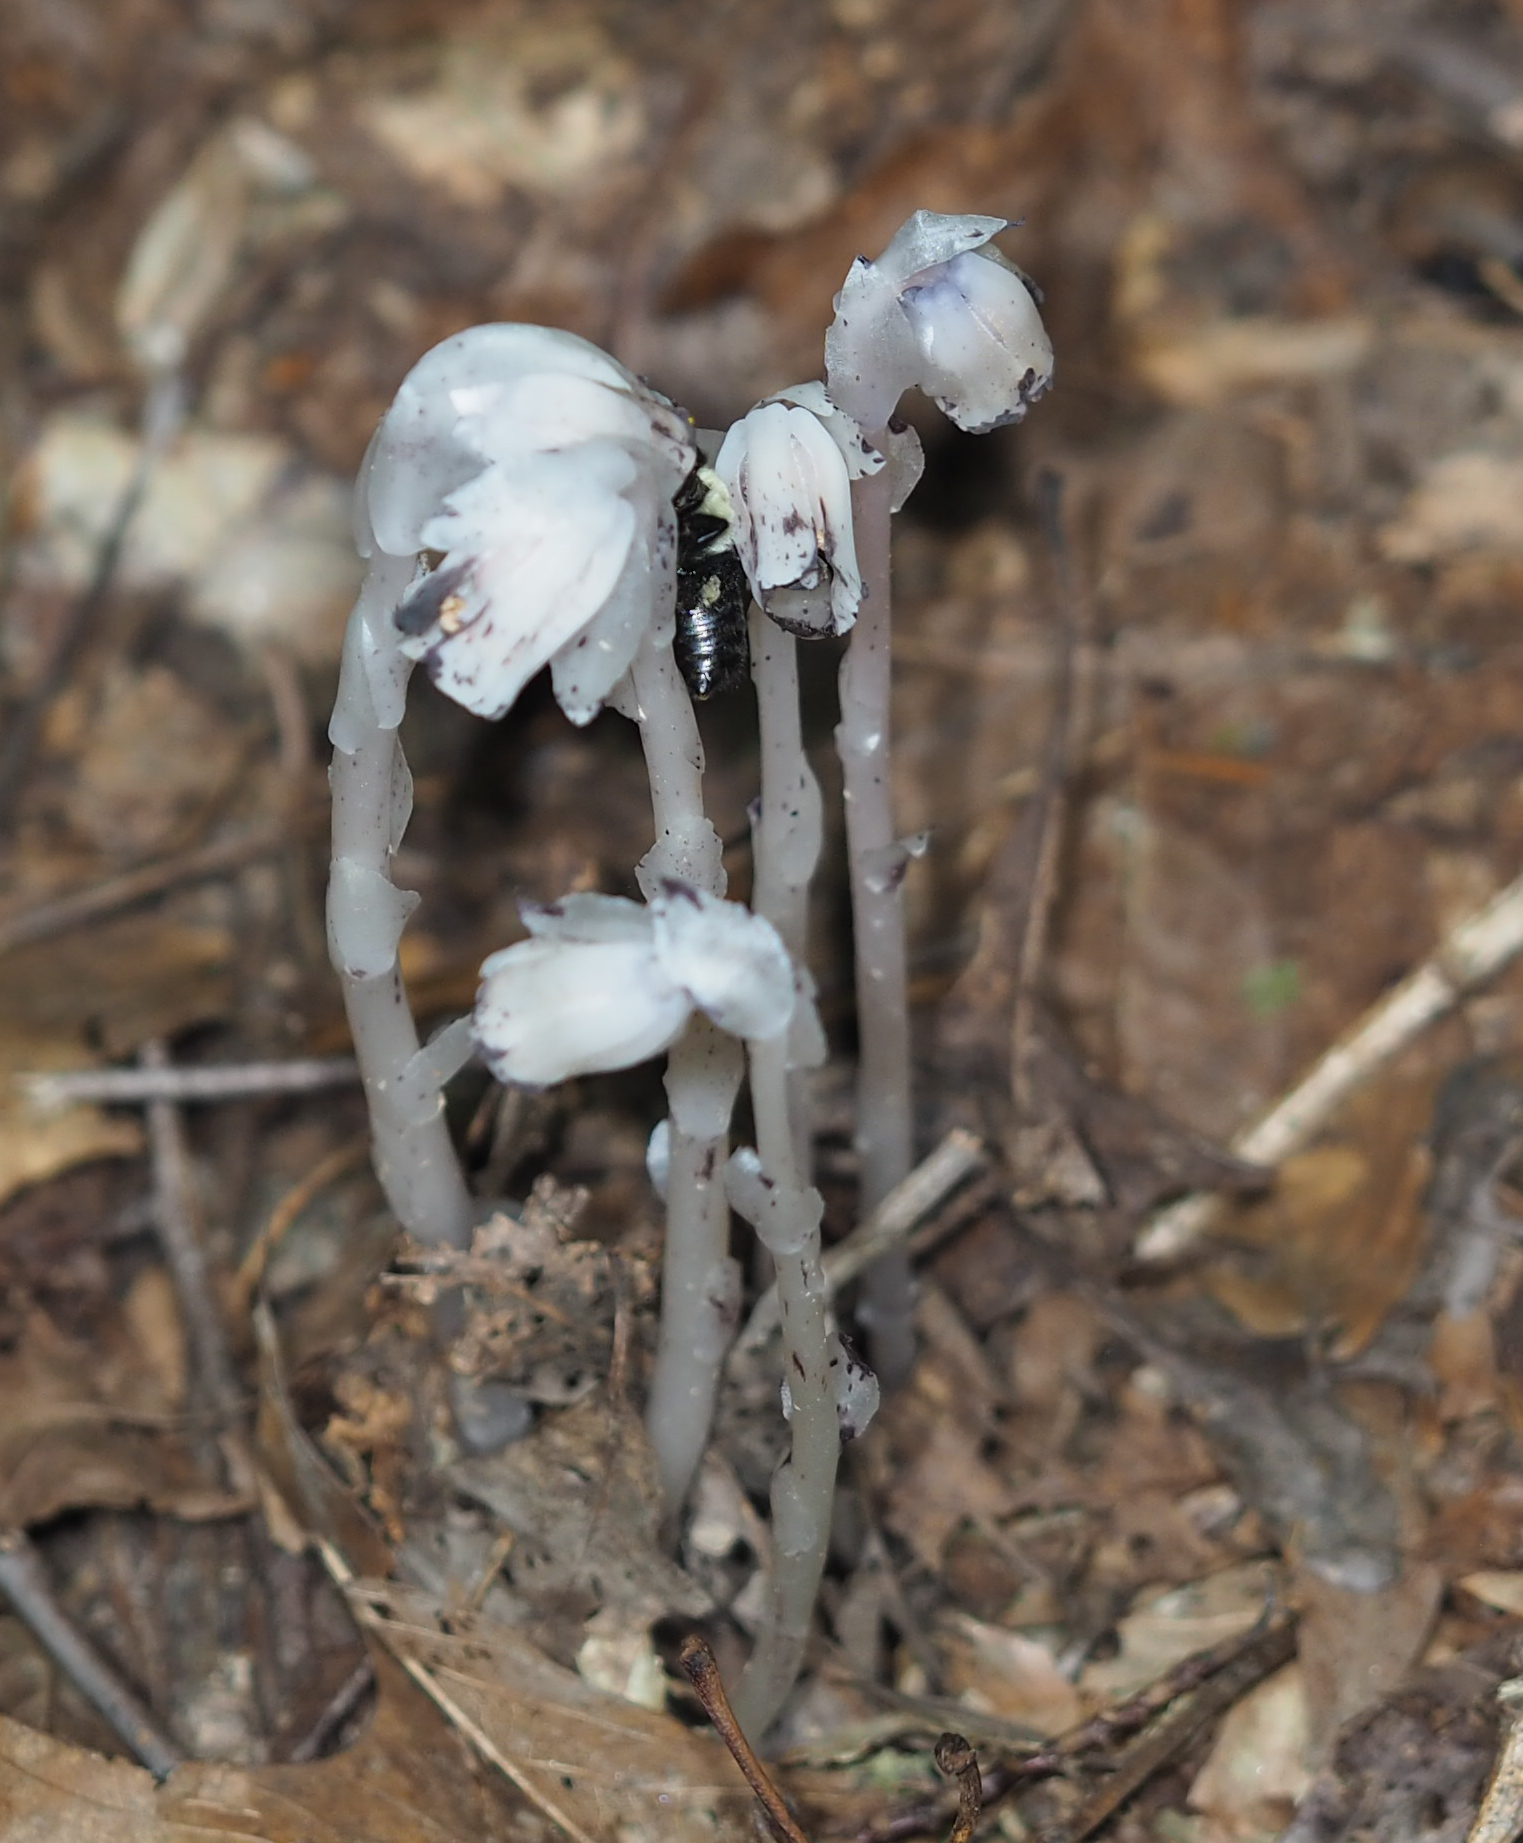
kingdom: Plantae
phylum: Tracheophyta
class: Magnoliopsida
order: Ericales
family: Ericaceae
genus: Monotropa
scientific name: Monotropa uniflora
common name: Convulsion root
